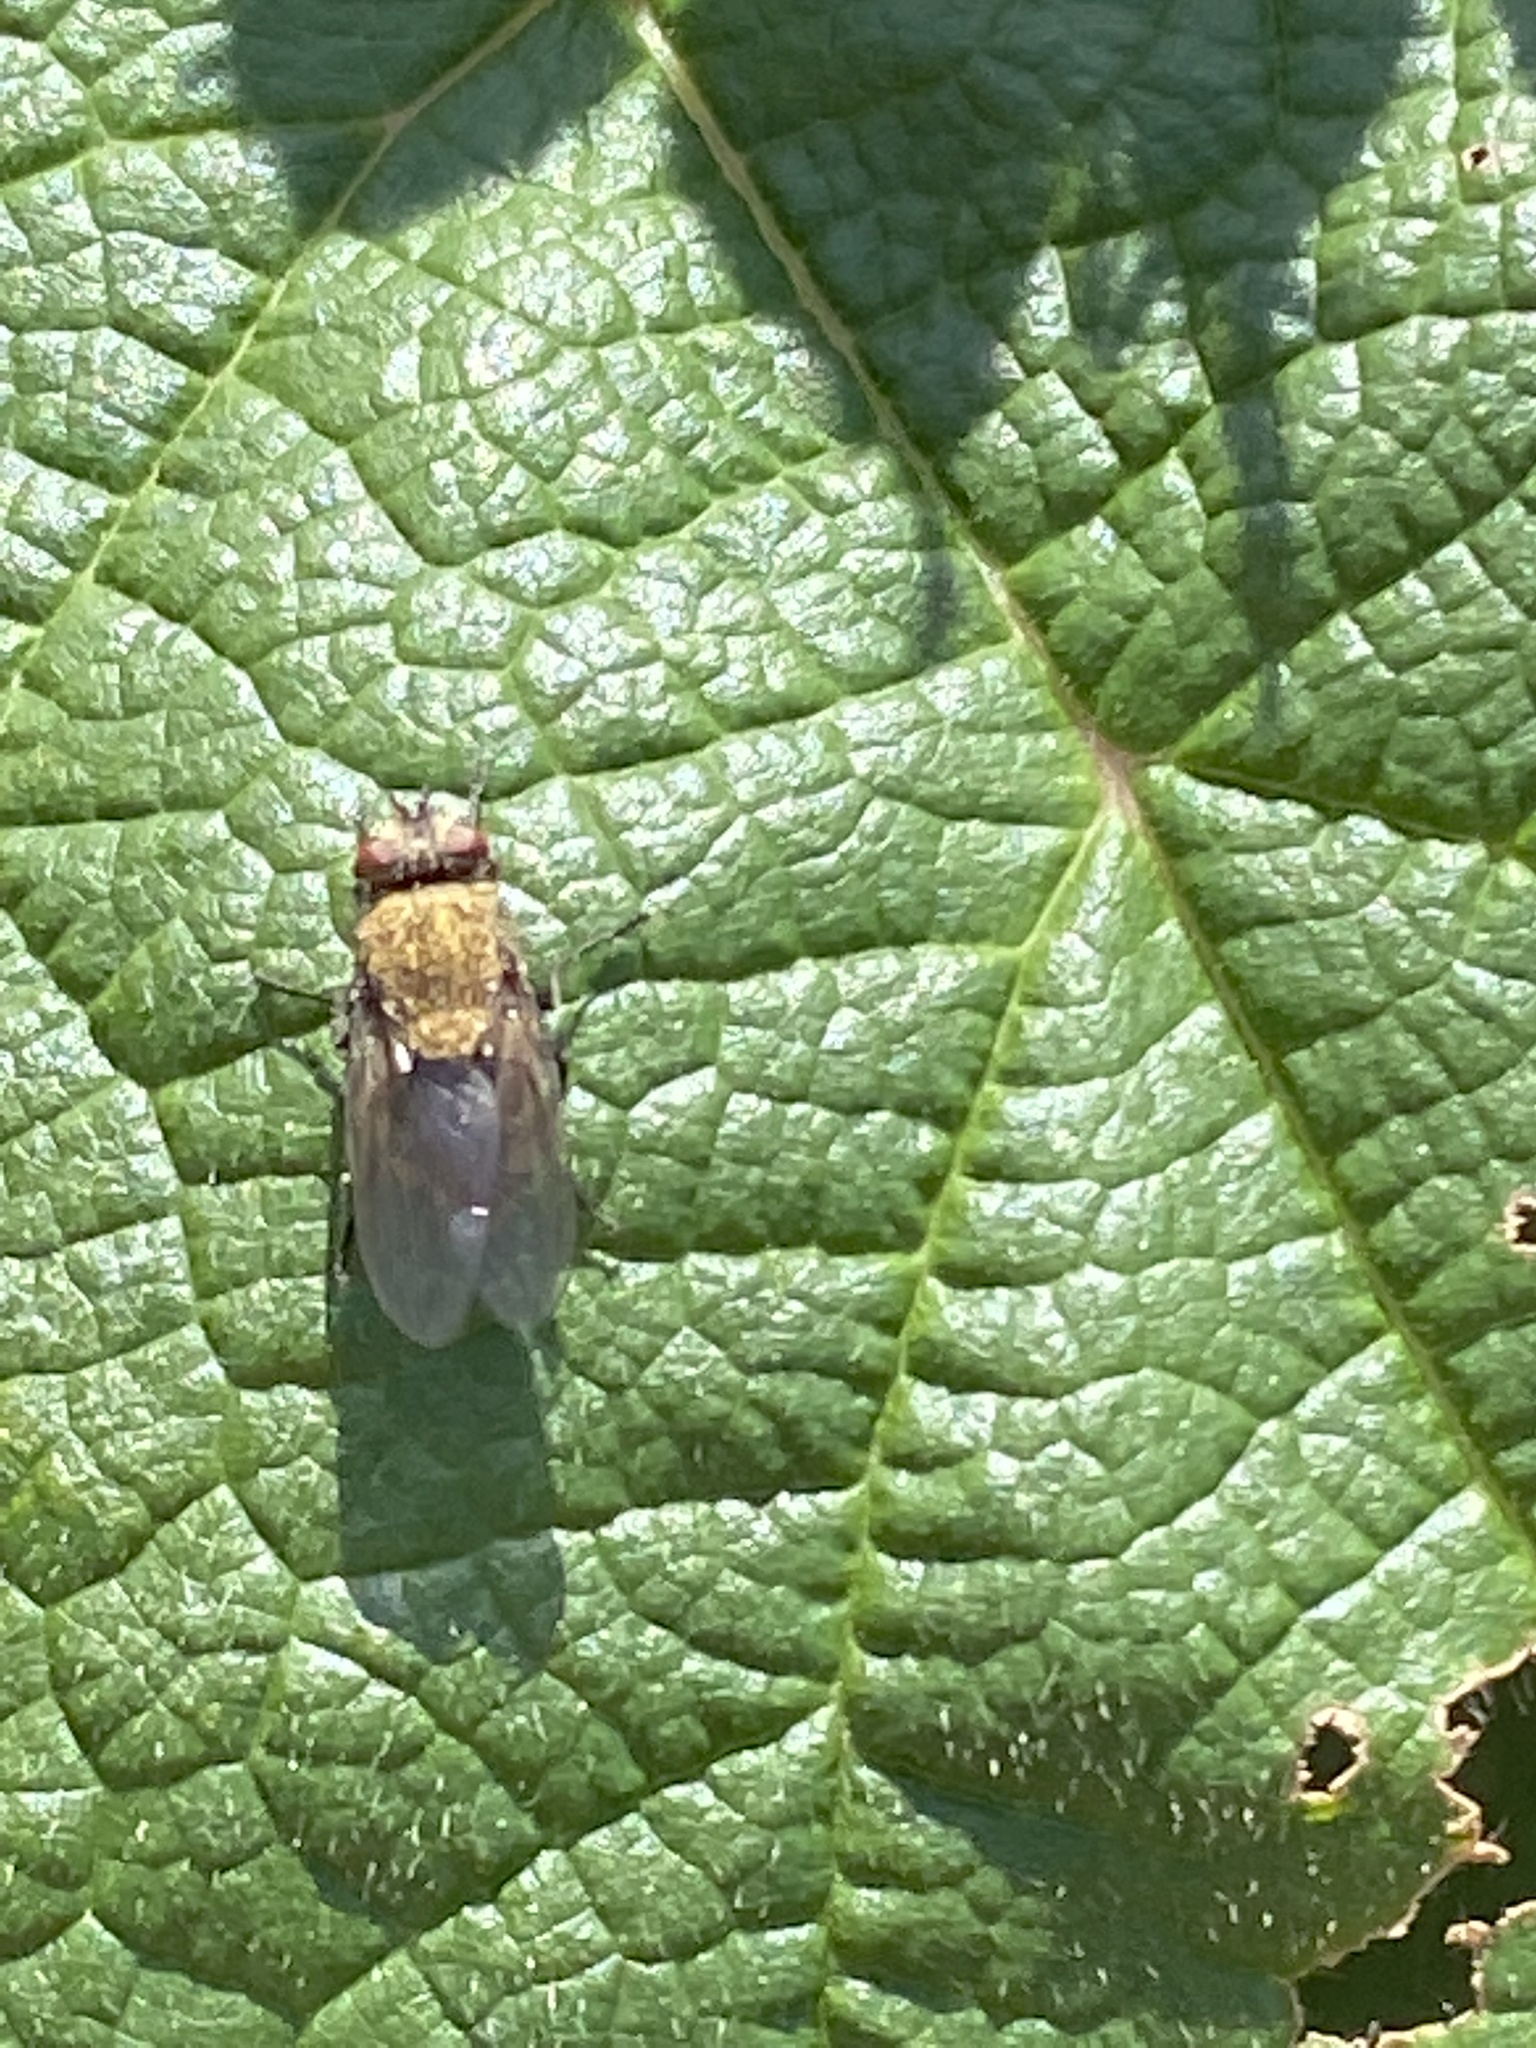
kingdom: Animalia
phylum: Arthropoda
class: Insecta
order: Diptera
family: Polleniidae
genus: Pollenia
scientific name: Pollenia
